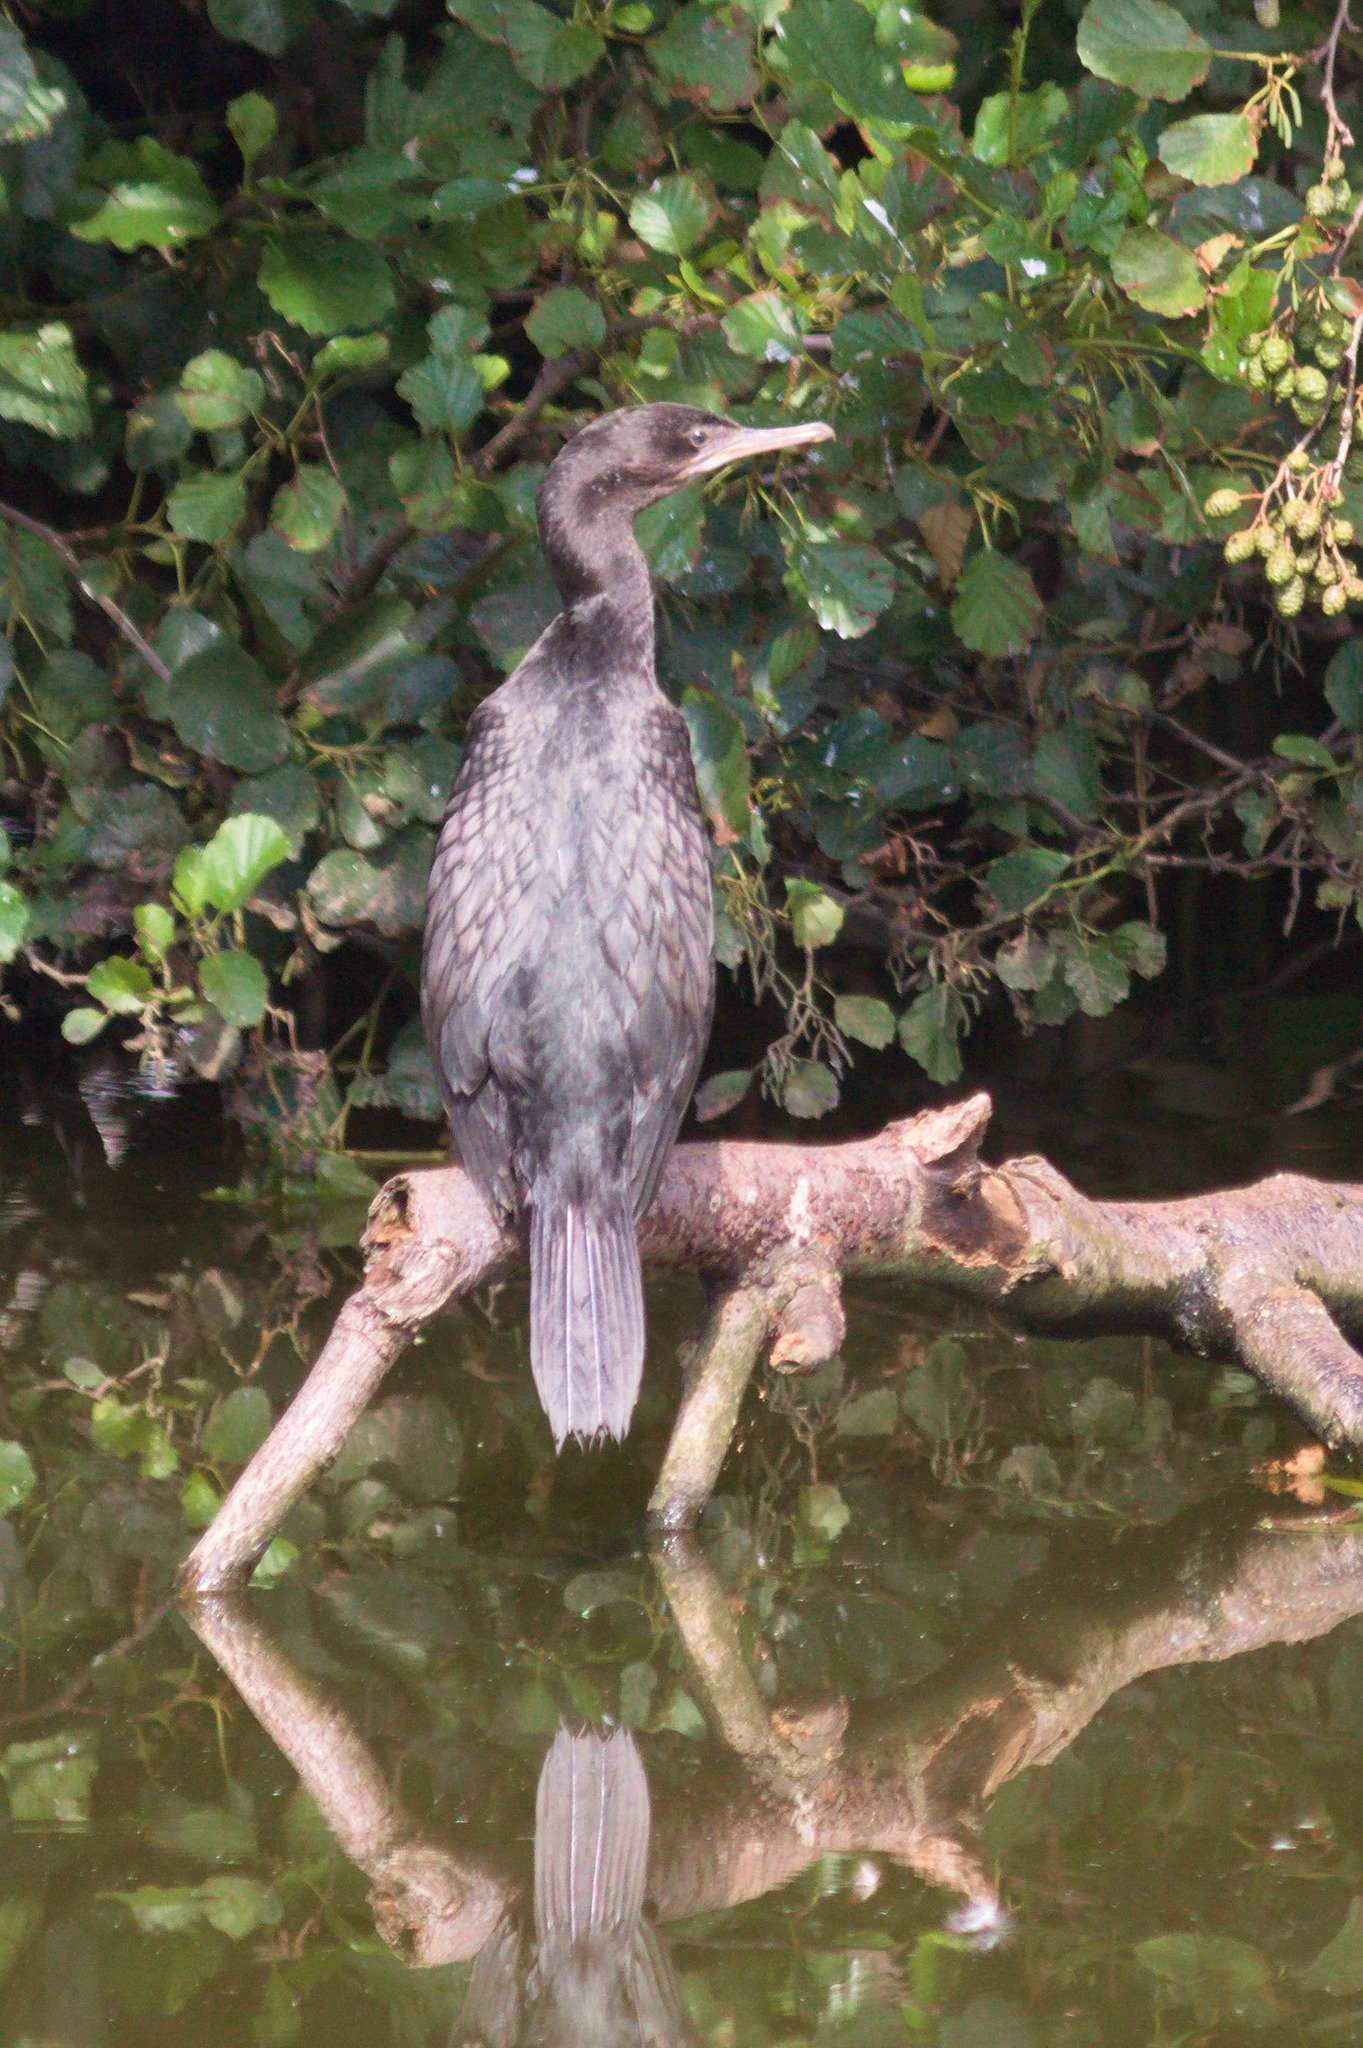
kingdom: Animalia
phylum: Chordata
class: Aves
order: Suliformes
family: Phalacrocoracidae
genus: Phalacrocorax
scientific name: Phalacrocorax sulcirostris
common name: Little black cormorant
